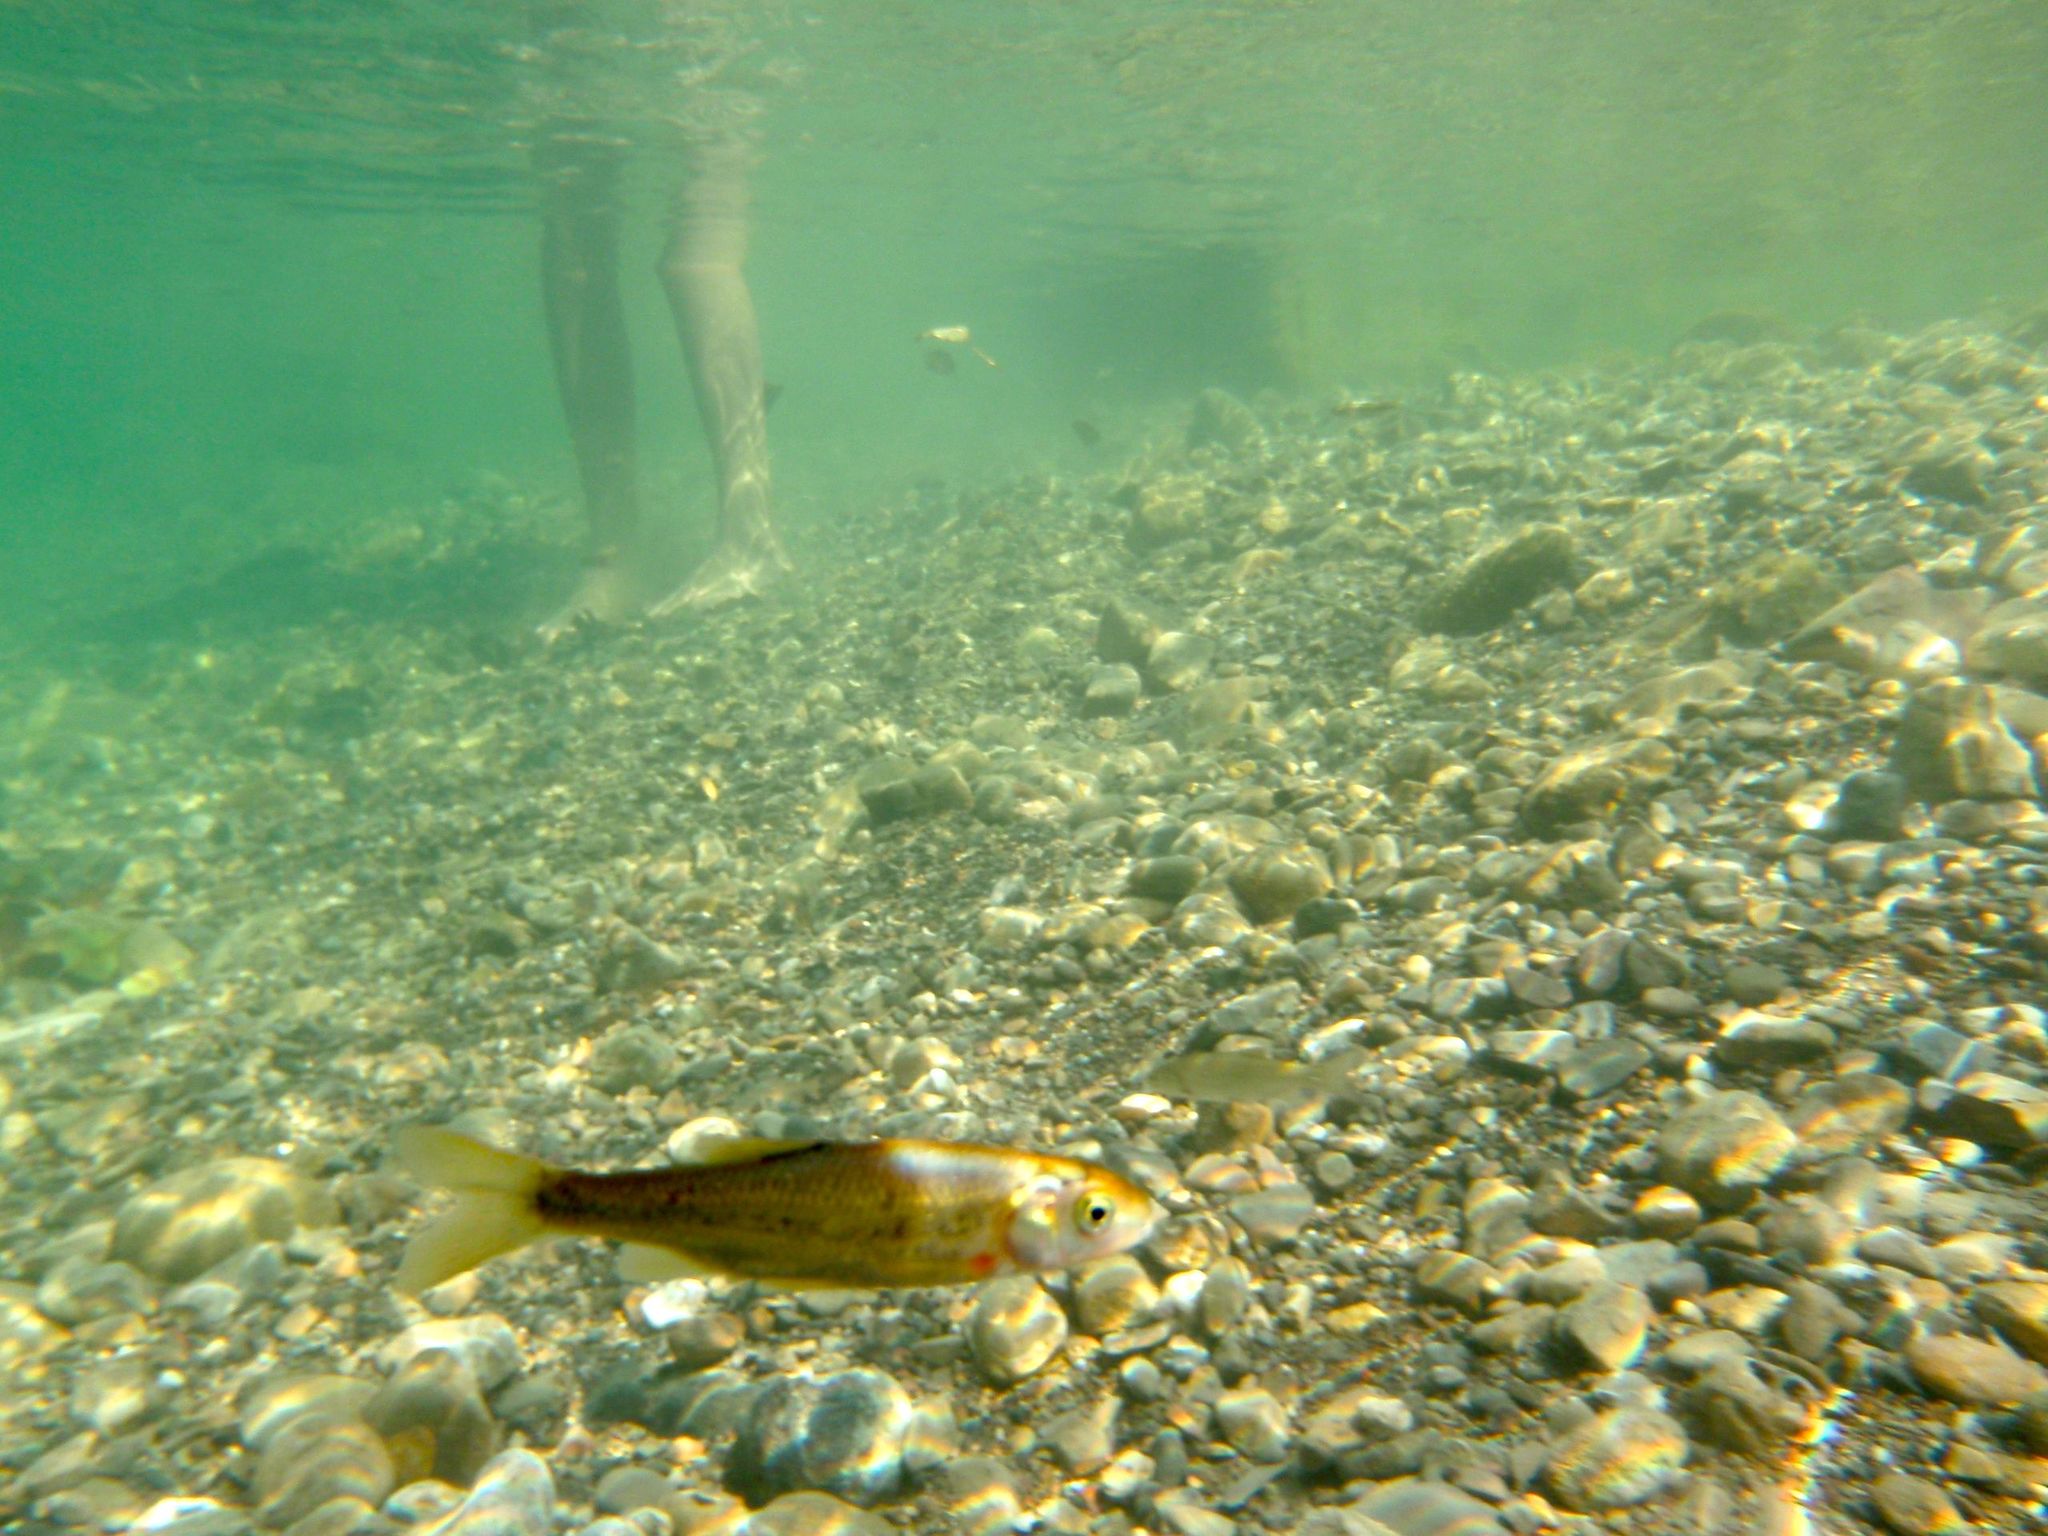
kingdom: Animalia
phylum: Chordata
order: Cypriniformes
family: Cyprinidae
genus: Telestes
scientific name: Telestes muticellus
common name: Italian riffle dace
